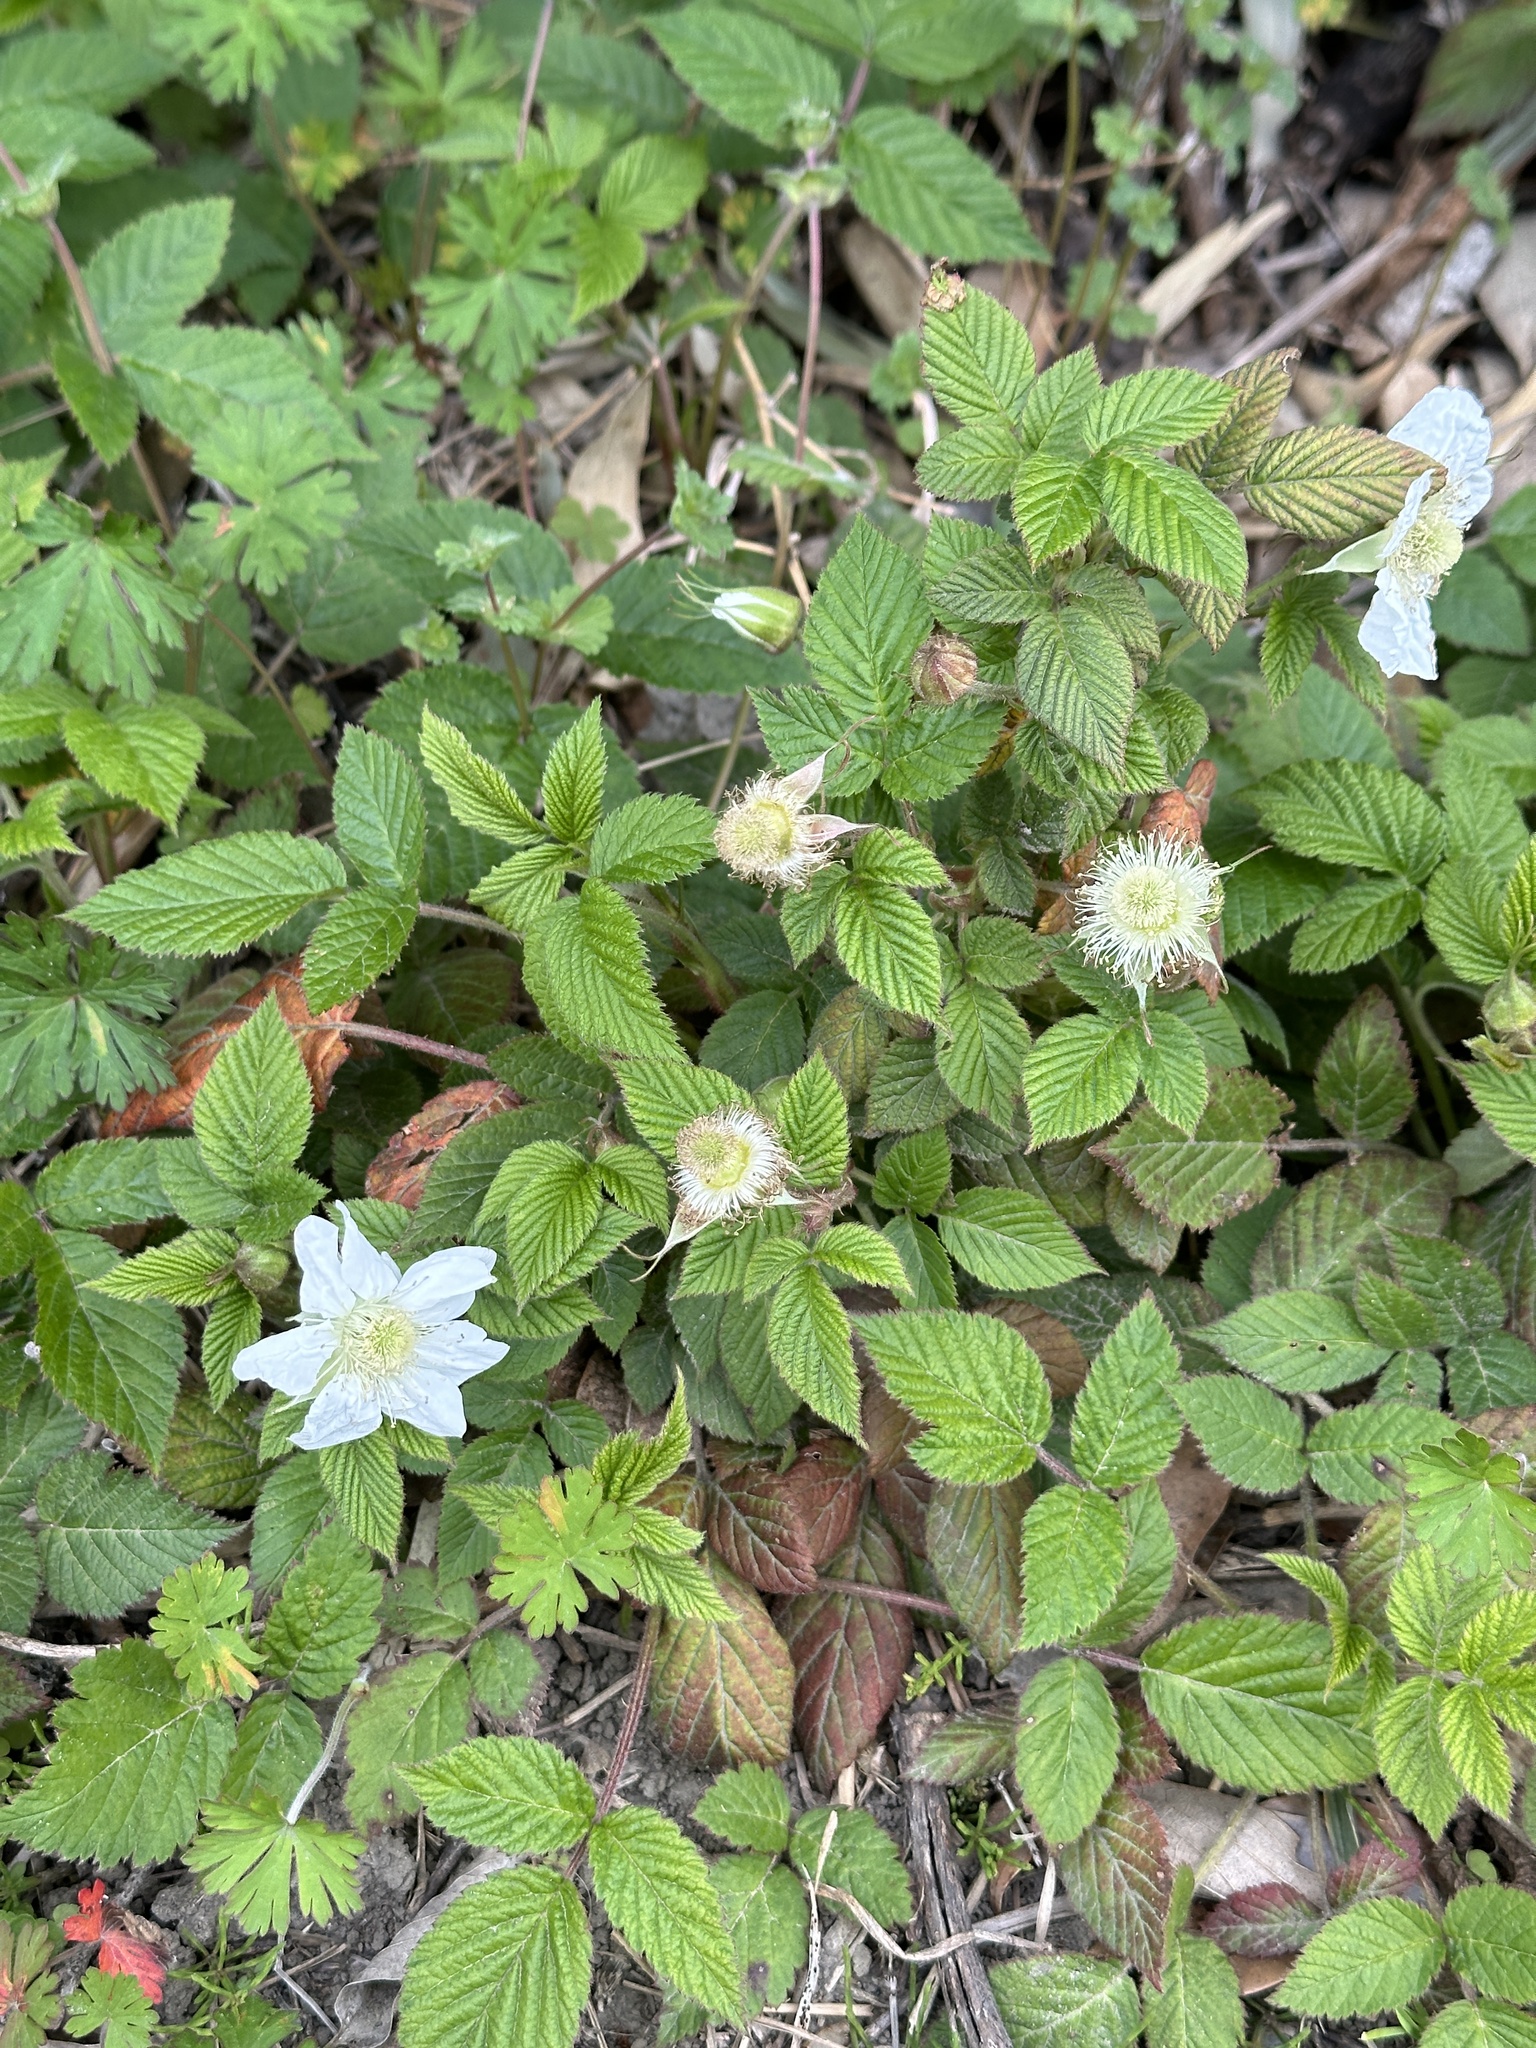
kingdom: Plantae
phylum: Tracheophyta
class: Magnoliopsida
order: Rosales
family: Rosaceae
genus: Rubus
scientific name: Rubus hirsutus
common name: Hirsute raspberry
